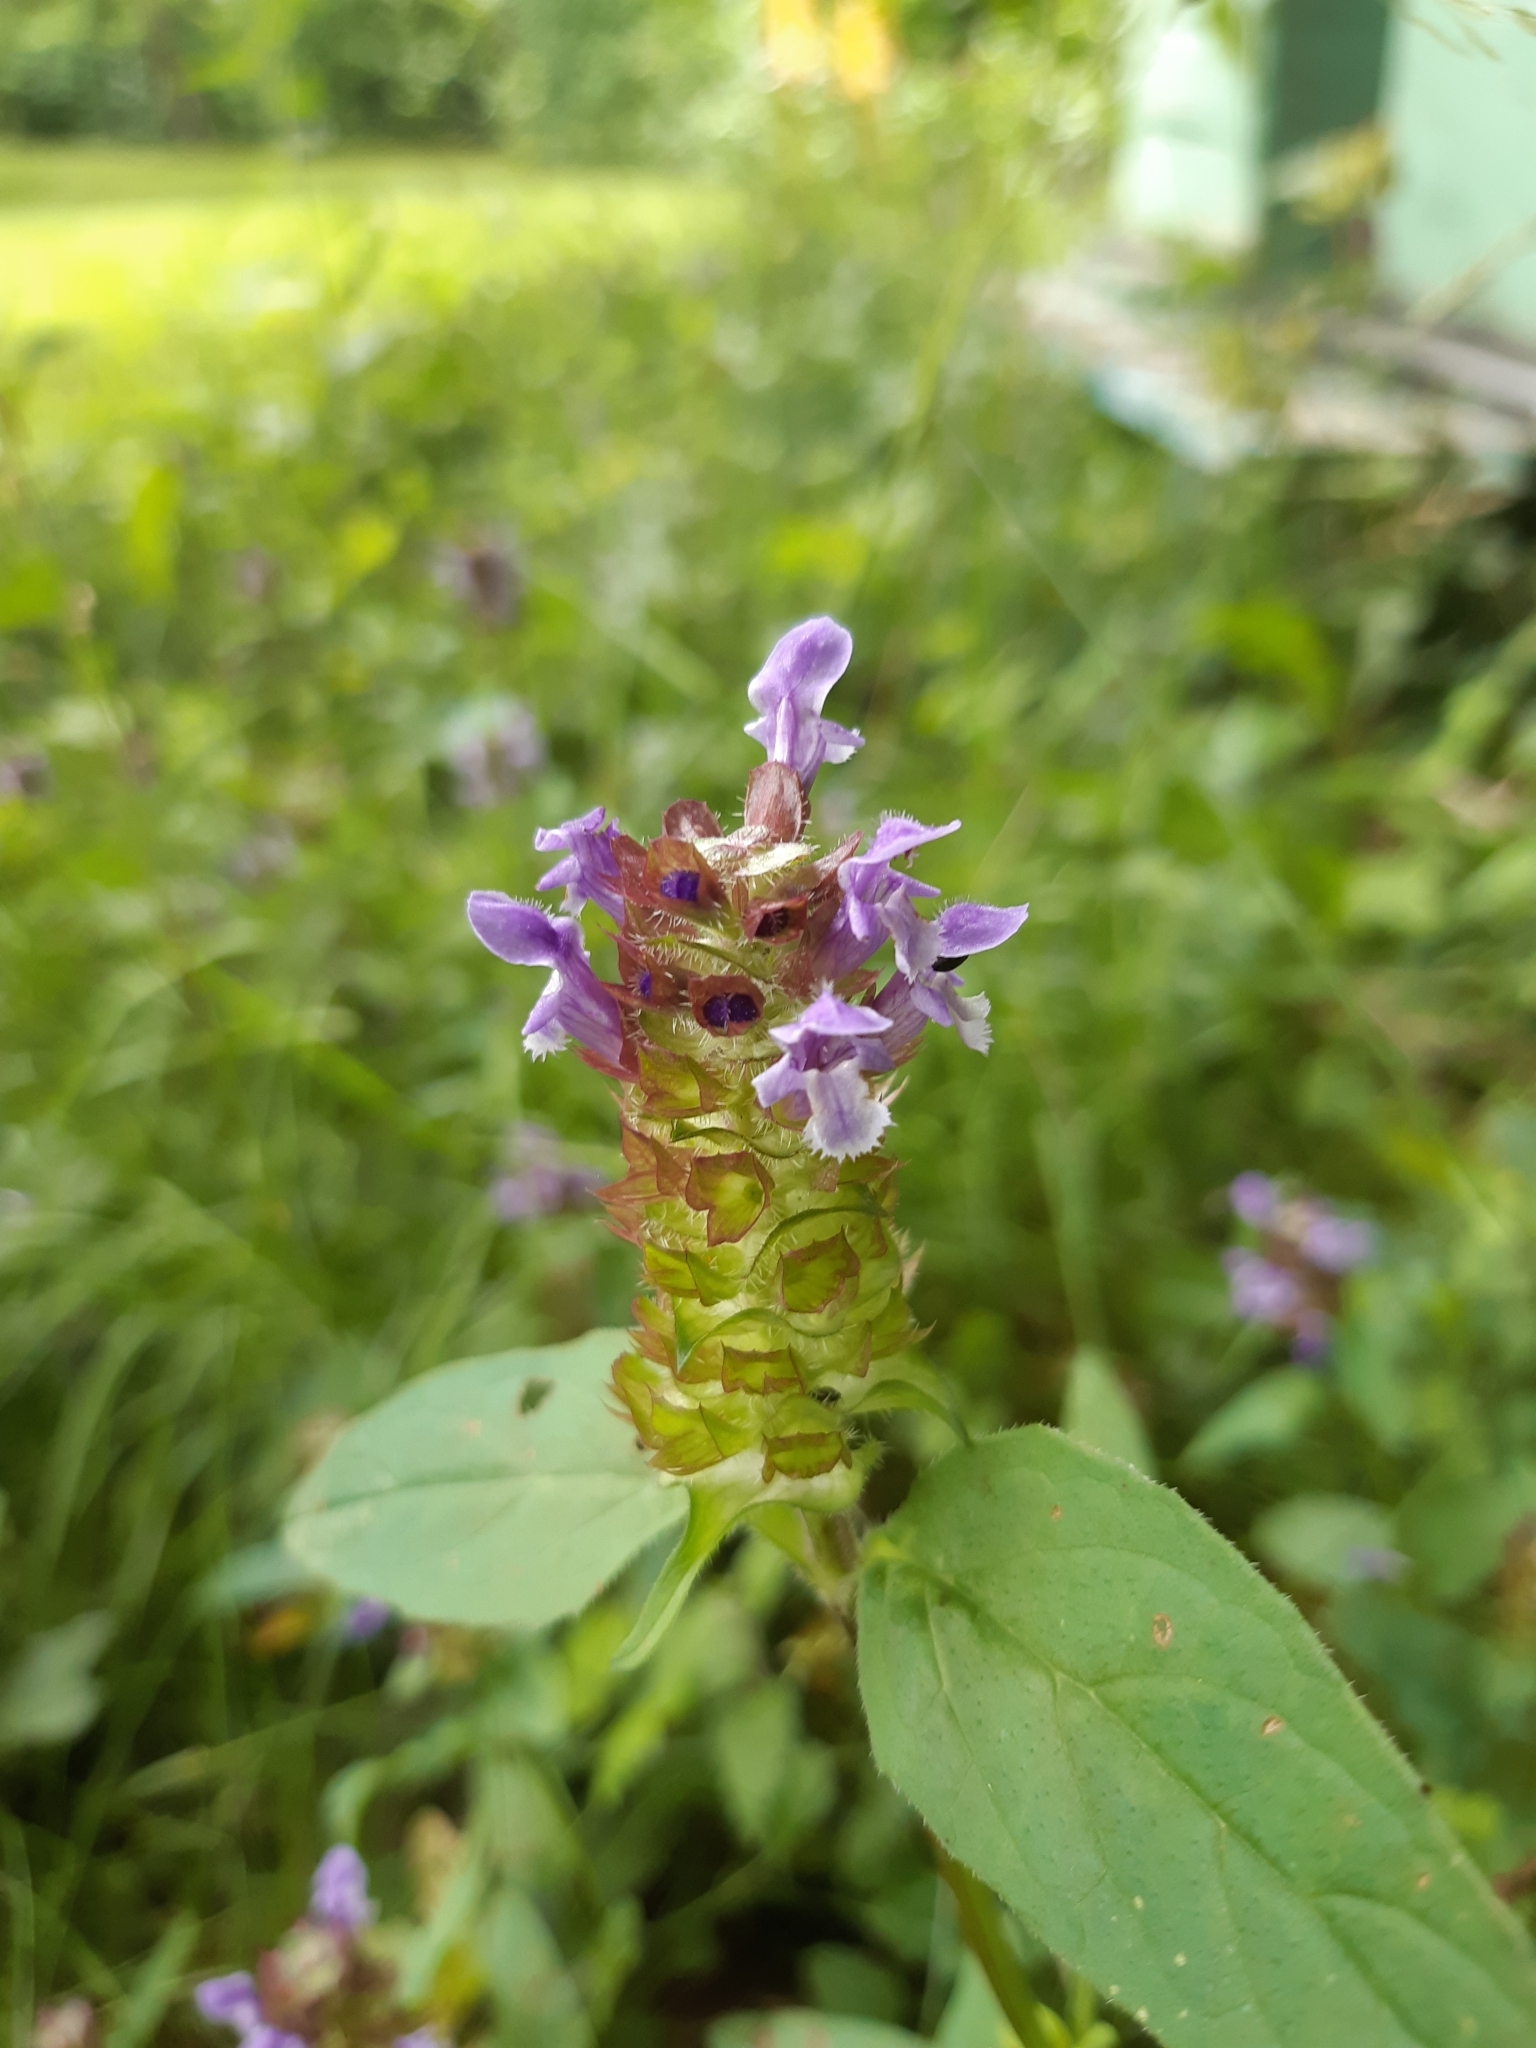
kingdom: Plantae
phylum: Tracheophyta
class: Magnoliopsida
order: Lamiales
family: Lamiaceae
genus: Prunella
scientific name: Prunella vulgaris
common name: Heal-all
